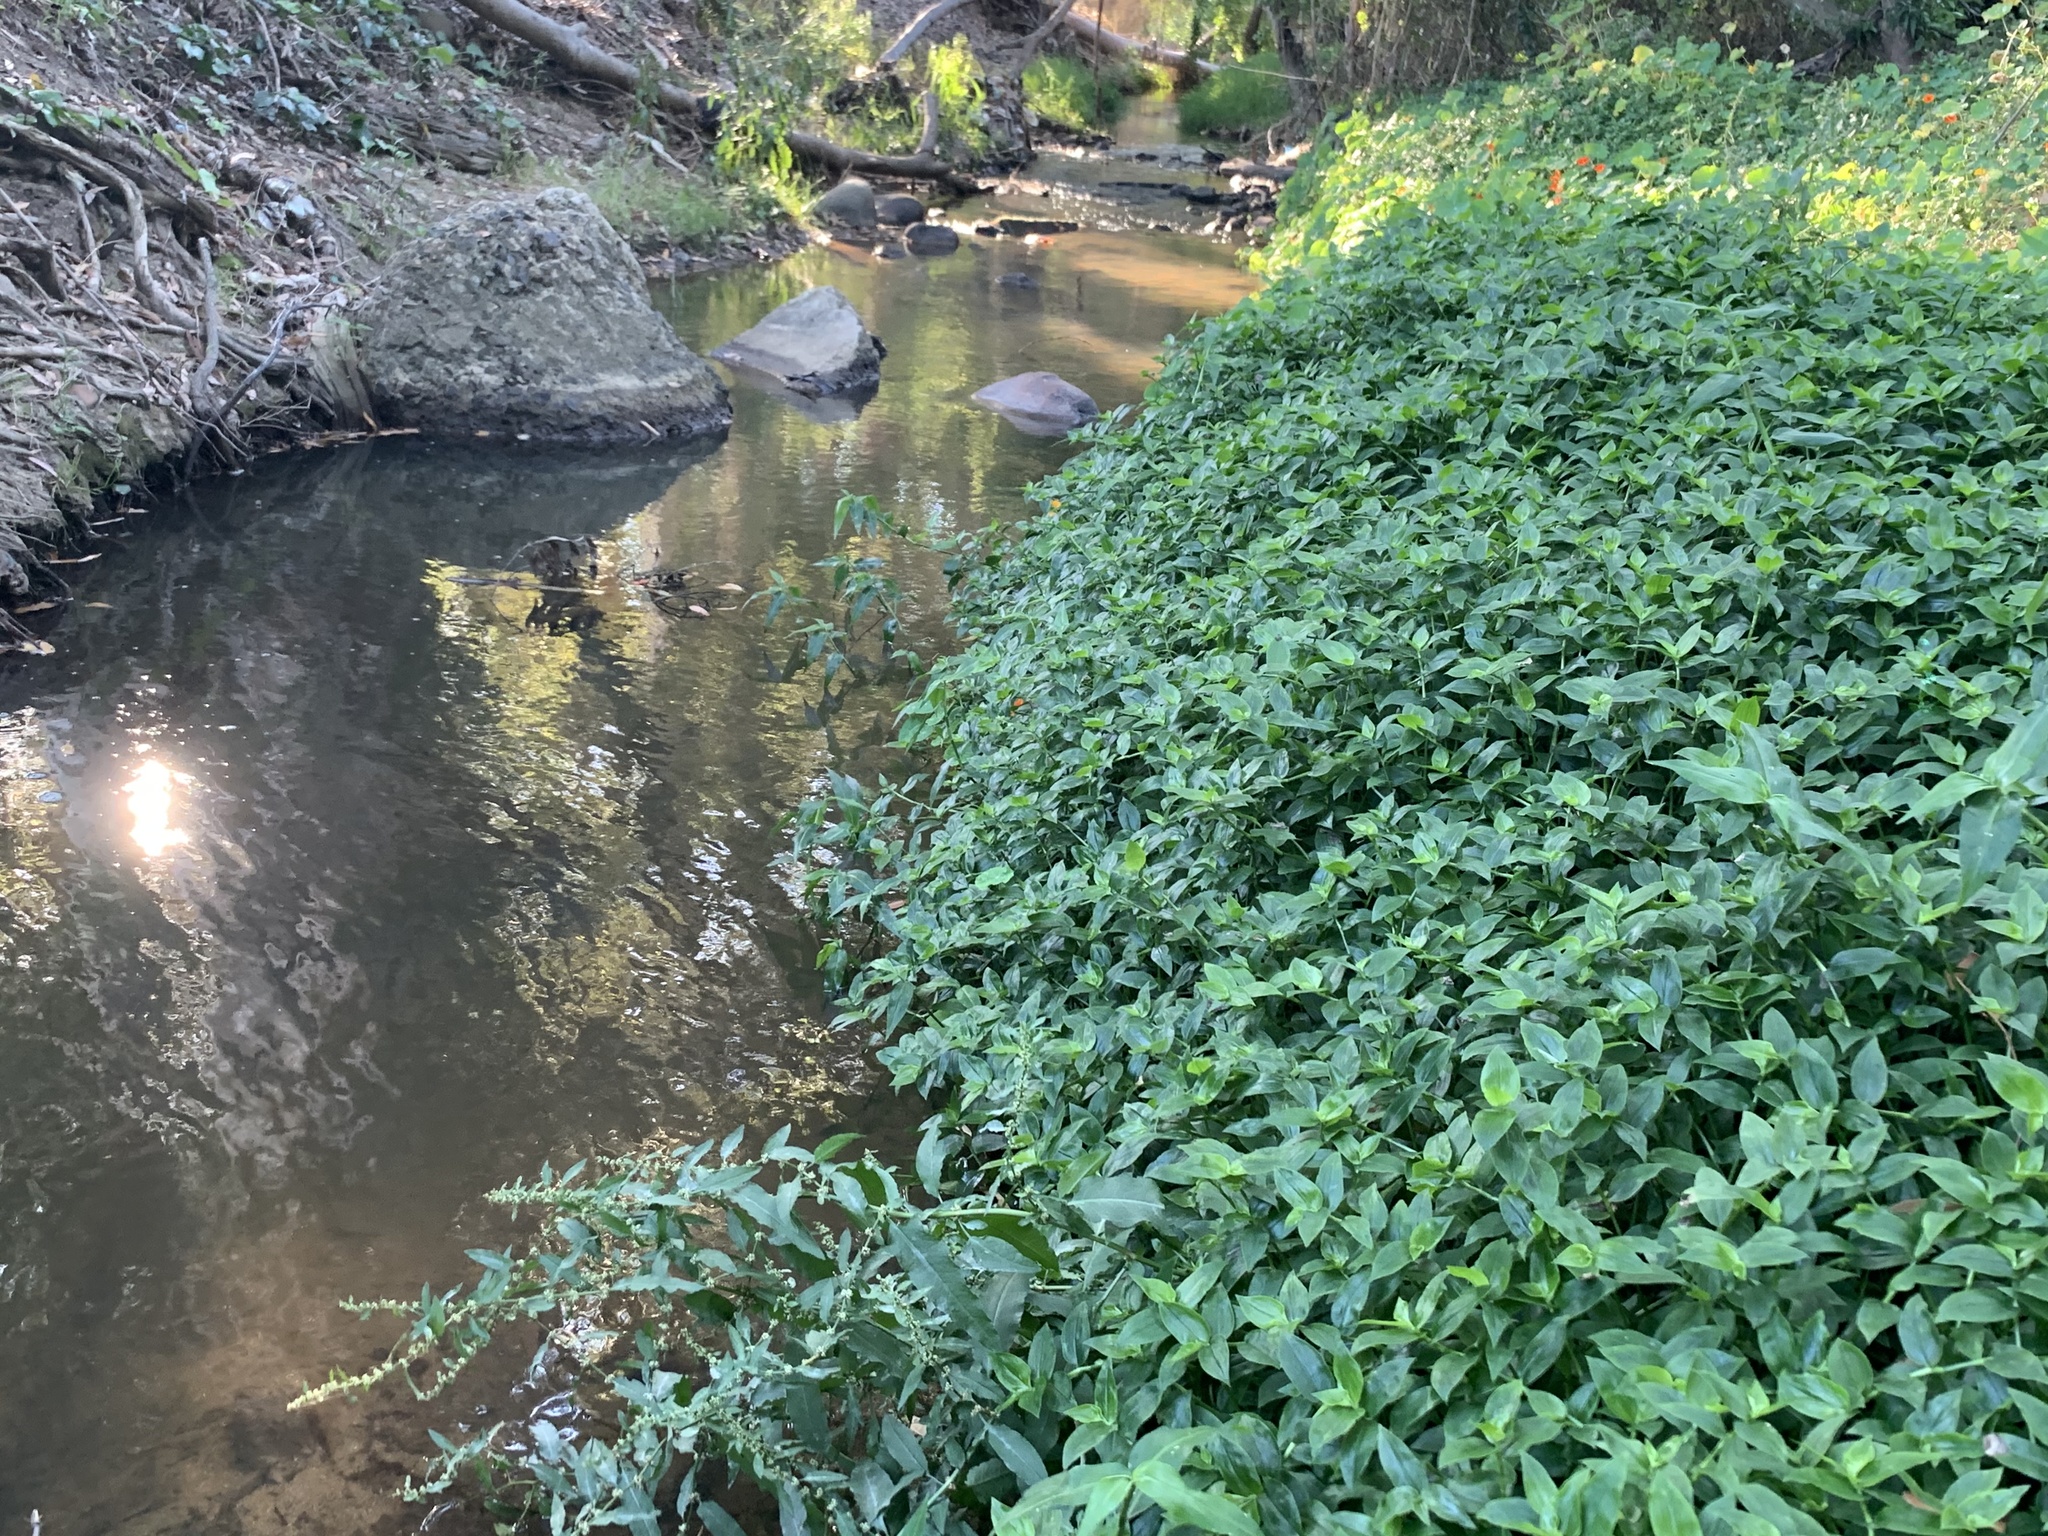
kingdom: Plantae
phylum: Tracheophyta
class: Liliopsida
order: Commelinales
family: Commelinaceae
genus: Tradescantia
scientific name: Tradescantia fluminensis
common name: Wandering-jew
